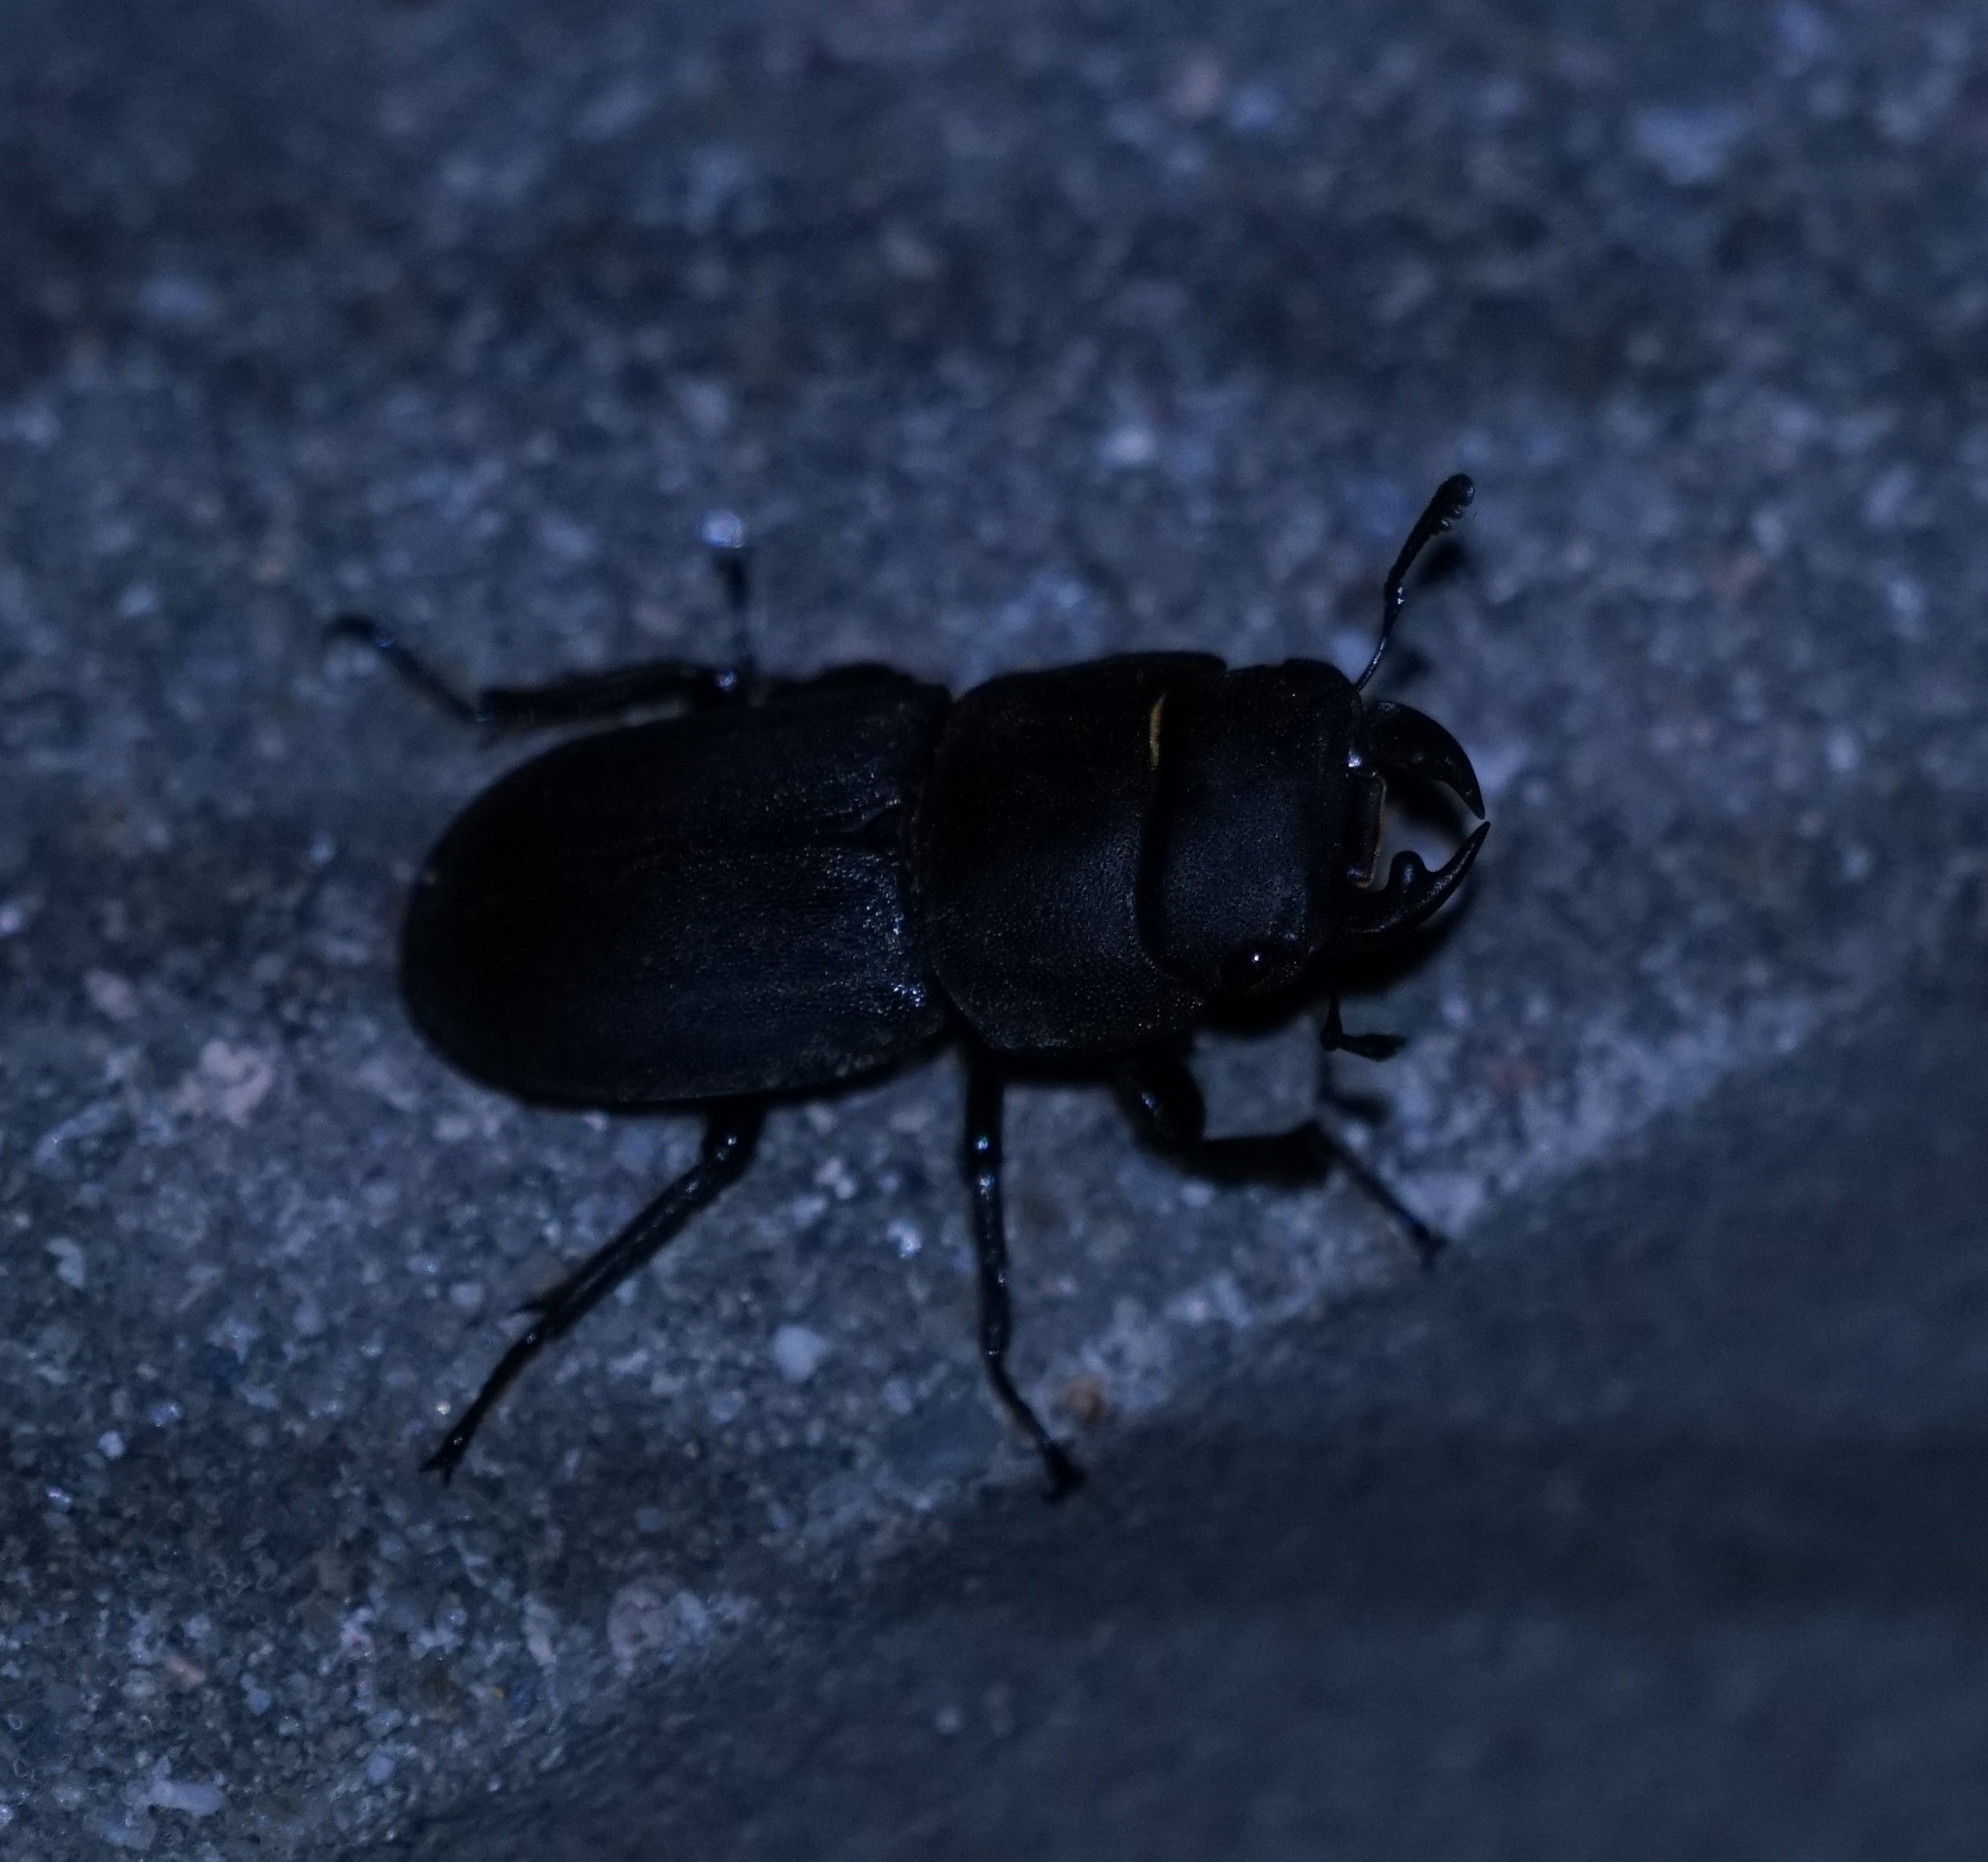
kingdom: Animalia
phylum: Arthropoda
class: Insecta
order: Coleoptera
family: Lucanidae
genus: Dorcus
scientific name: Dorcus parallelipipedus
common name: Lesser stag beetle
